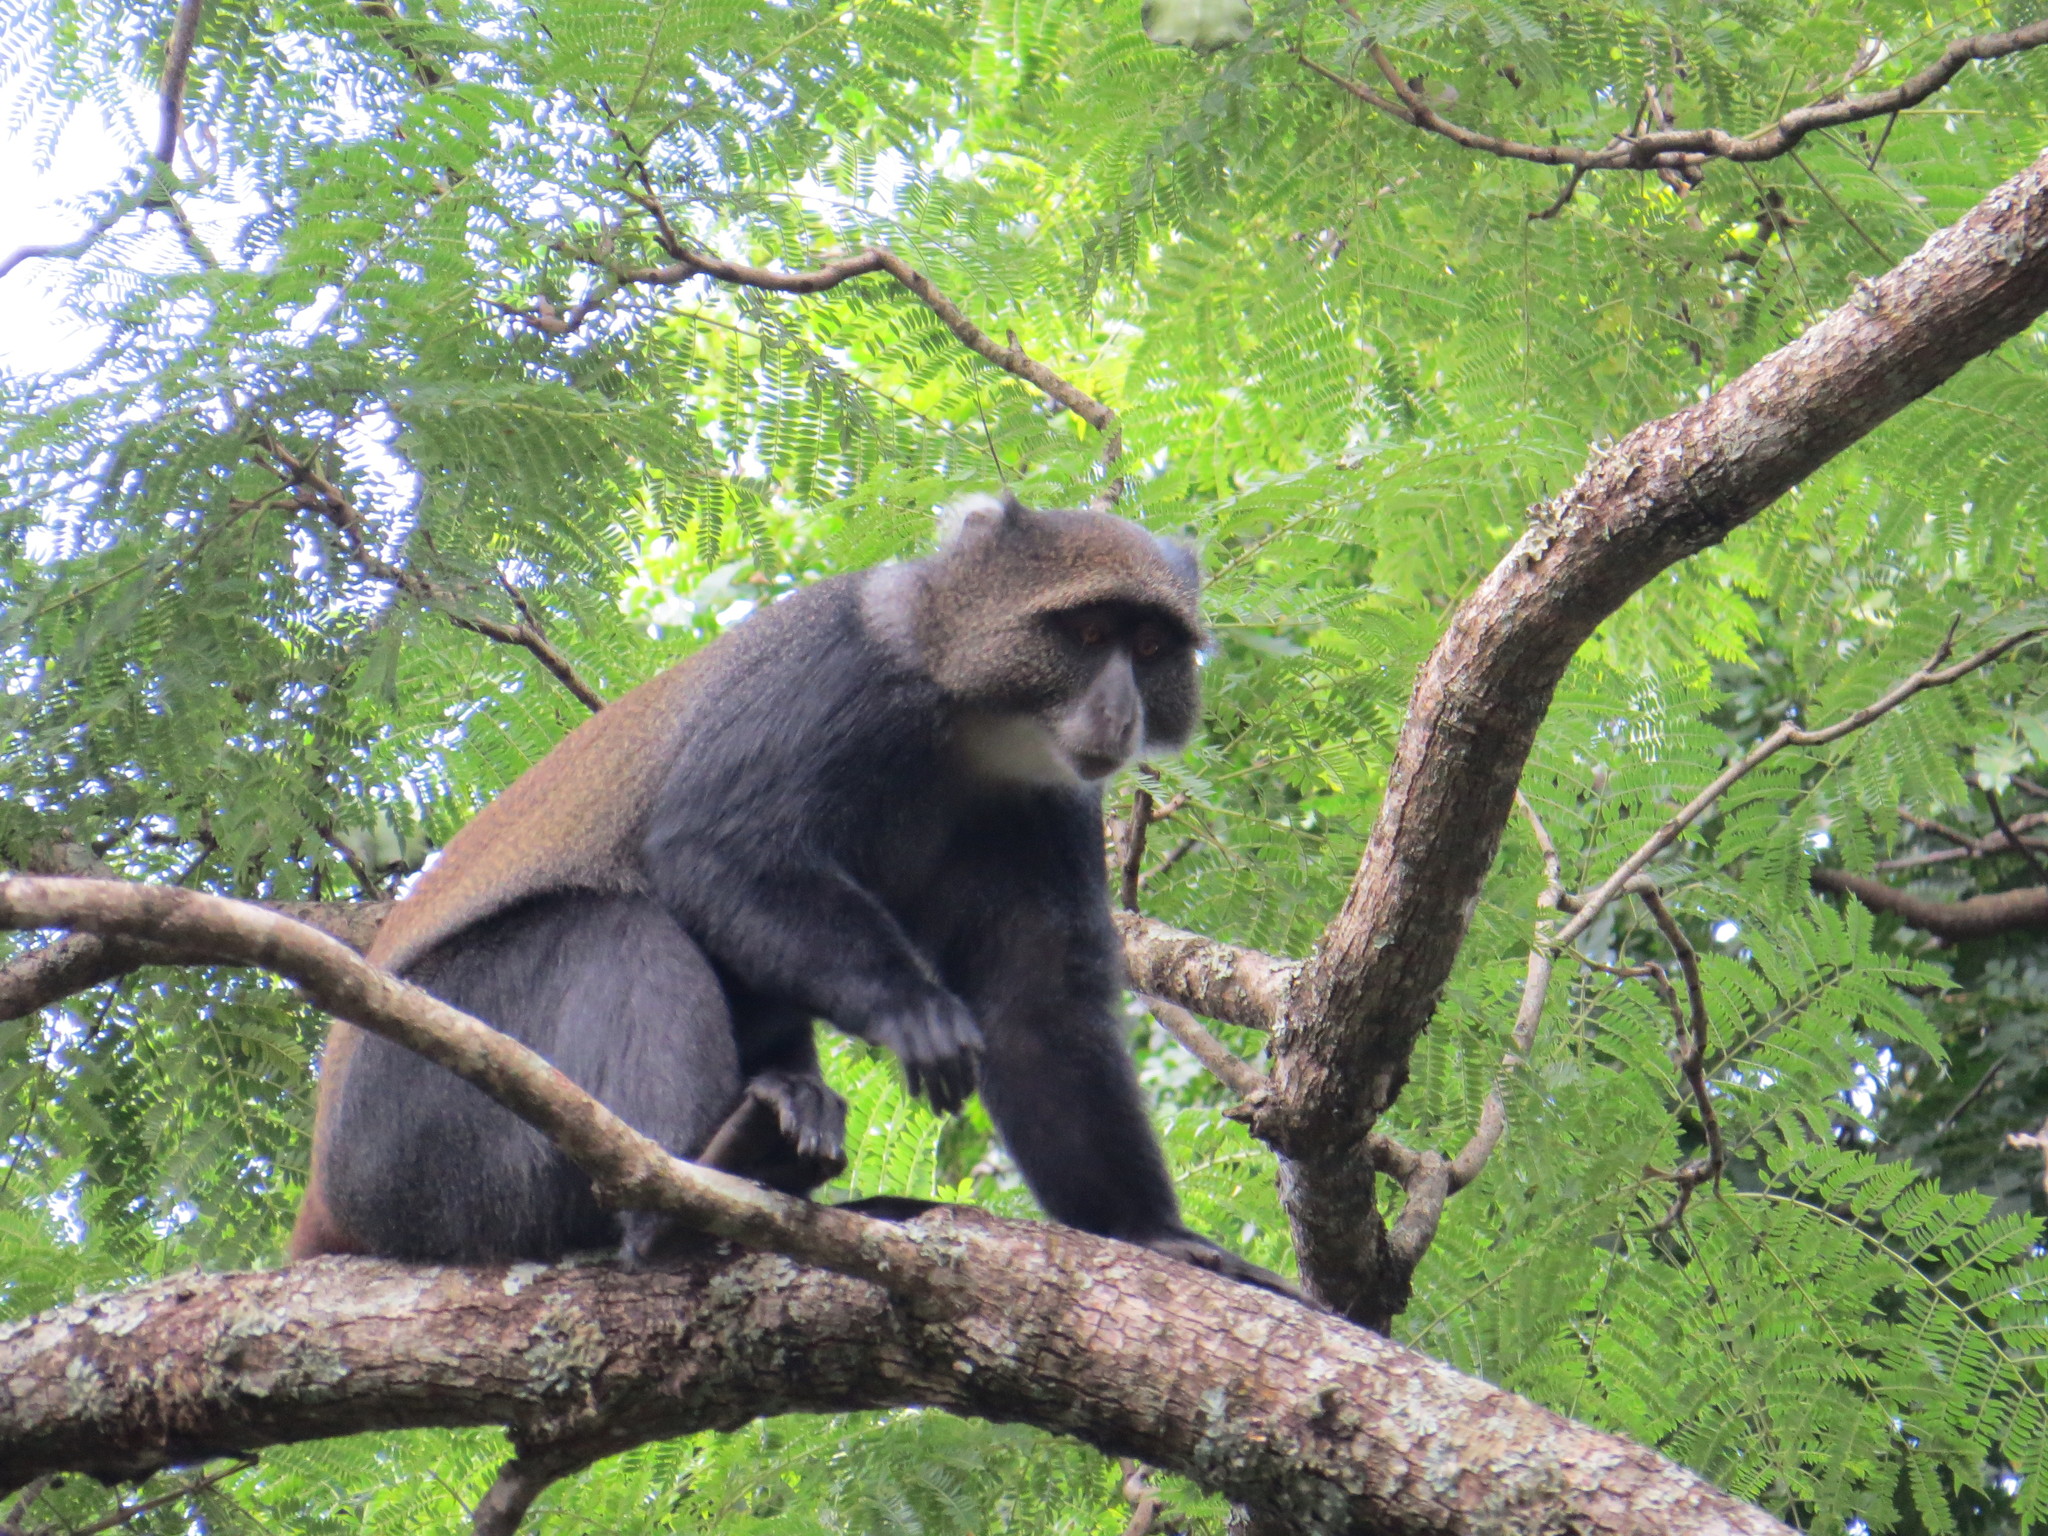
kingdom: Animalia
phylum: Chordata
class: Mammalia
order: Primates
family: Cercopithecidae
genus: Cercopithecus
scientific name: Cercopithecus mitis
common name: Blue monkey
